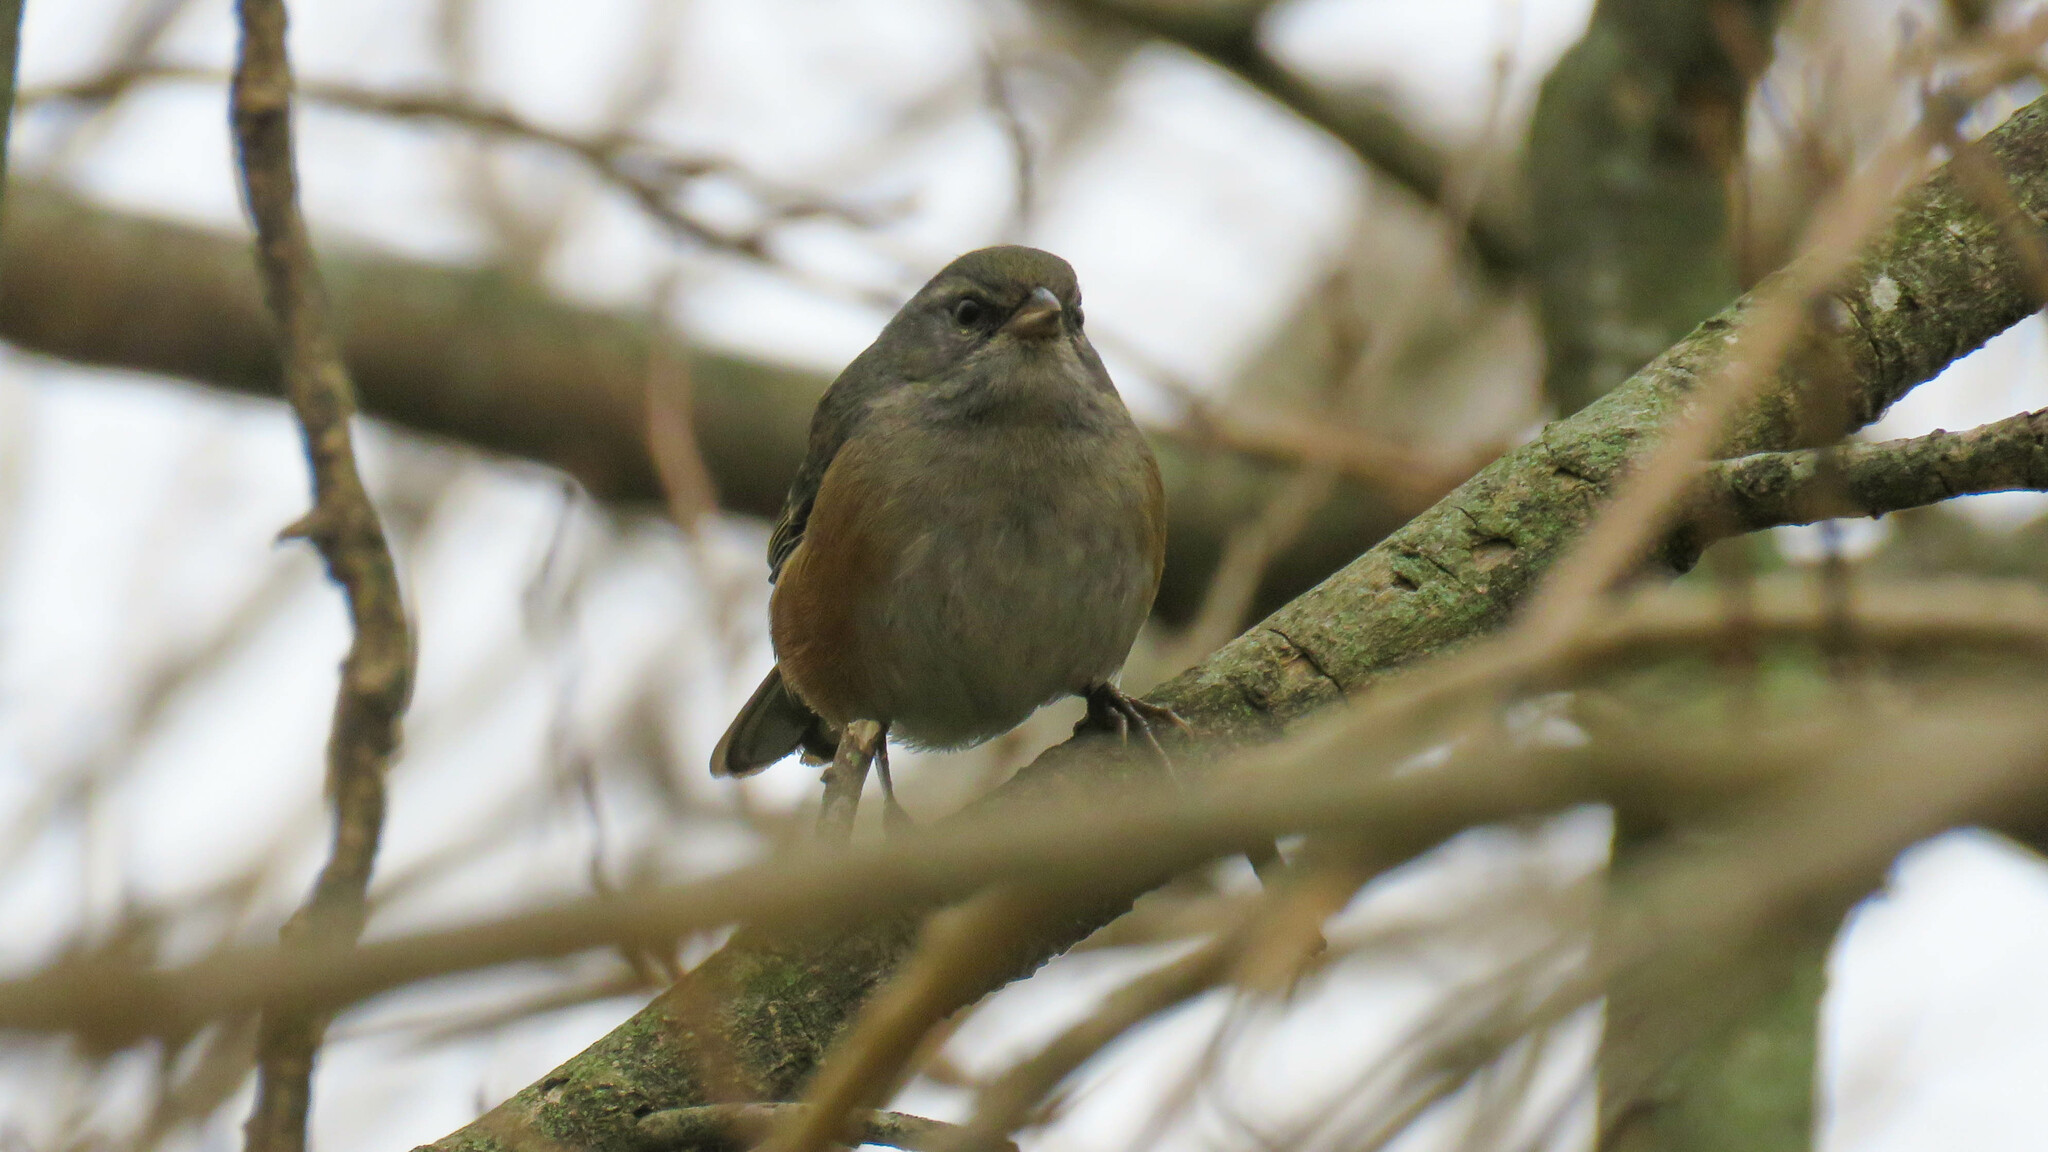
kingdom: Animalia
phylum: Chordata
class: Aves
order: Passeriformes
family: Thraupidae
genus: Microspingus
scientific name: Microspingus cabanisi
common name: Gray-throated warbling-finch
